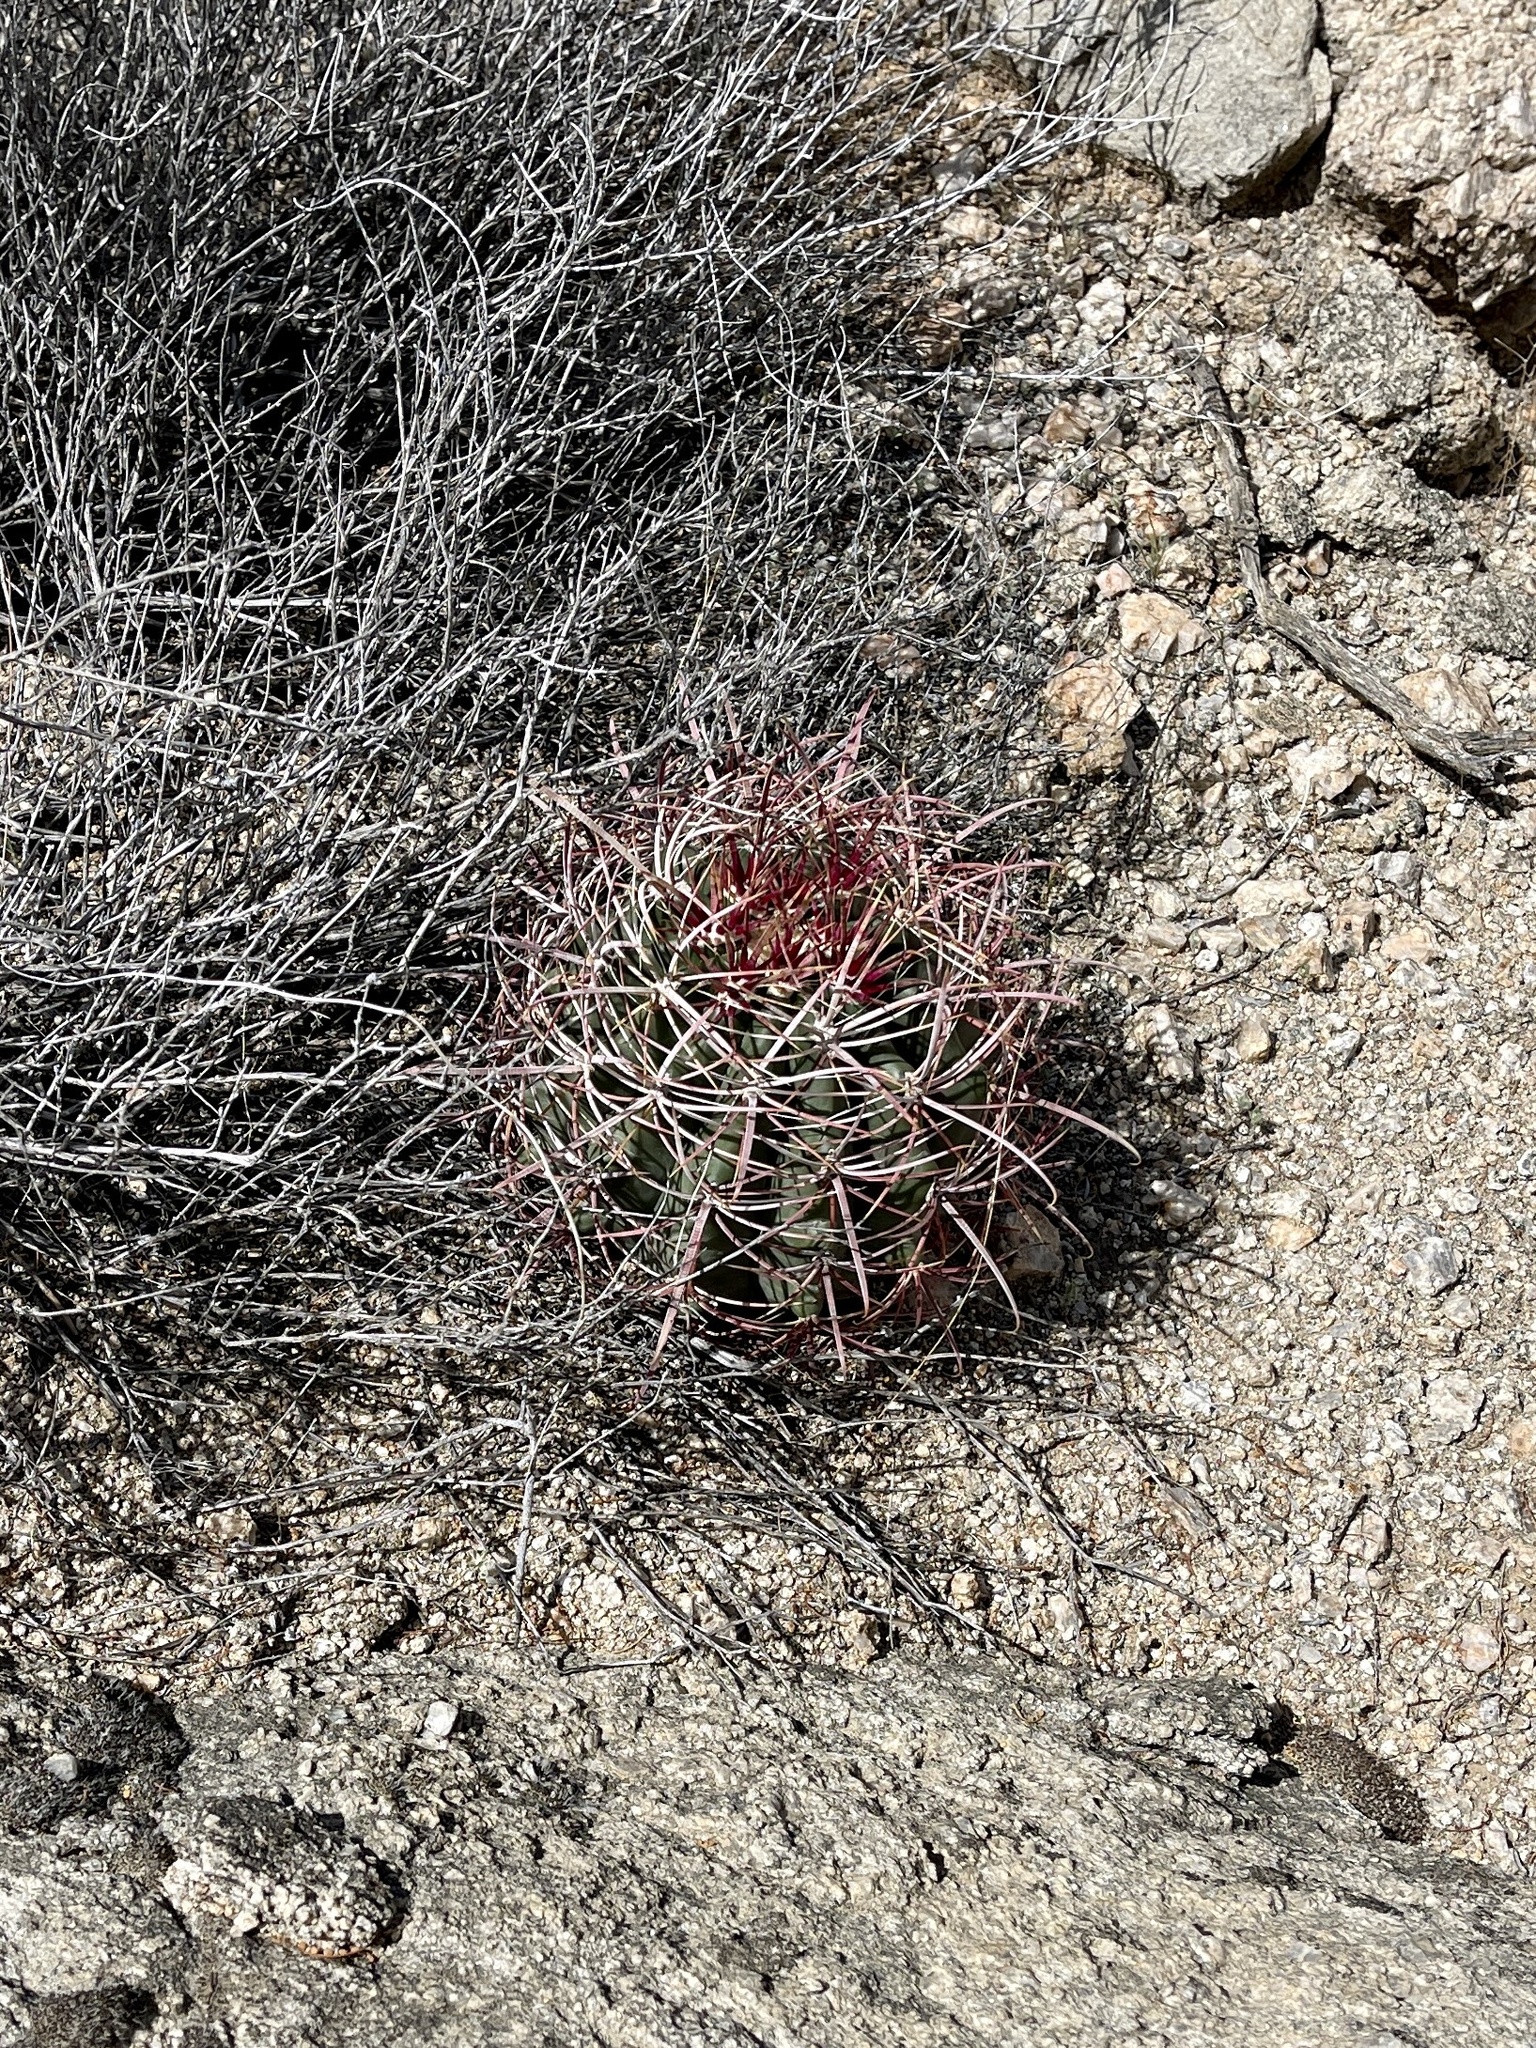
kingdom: Plantae
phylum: Tracheophyta
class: Magnoliopsida
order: Caryophyllales
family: Cactaceae
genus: Ferocactus
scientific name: Ferocactus cylindraceus
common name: California barrel cactus
